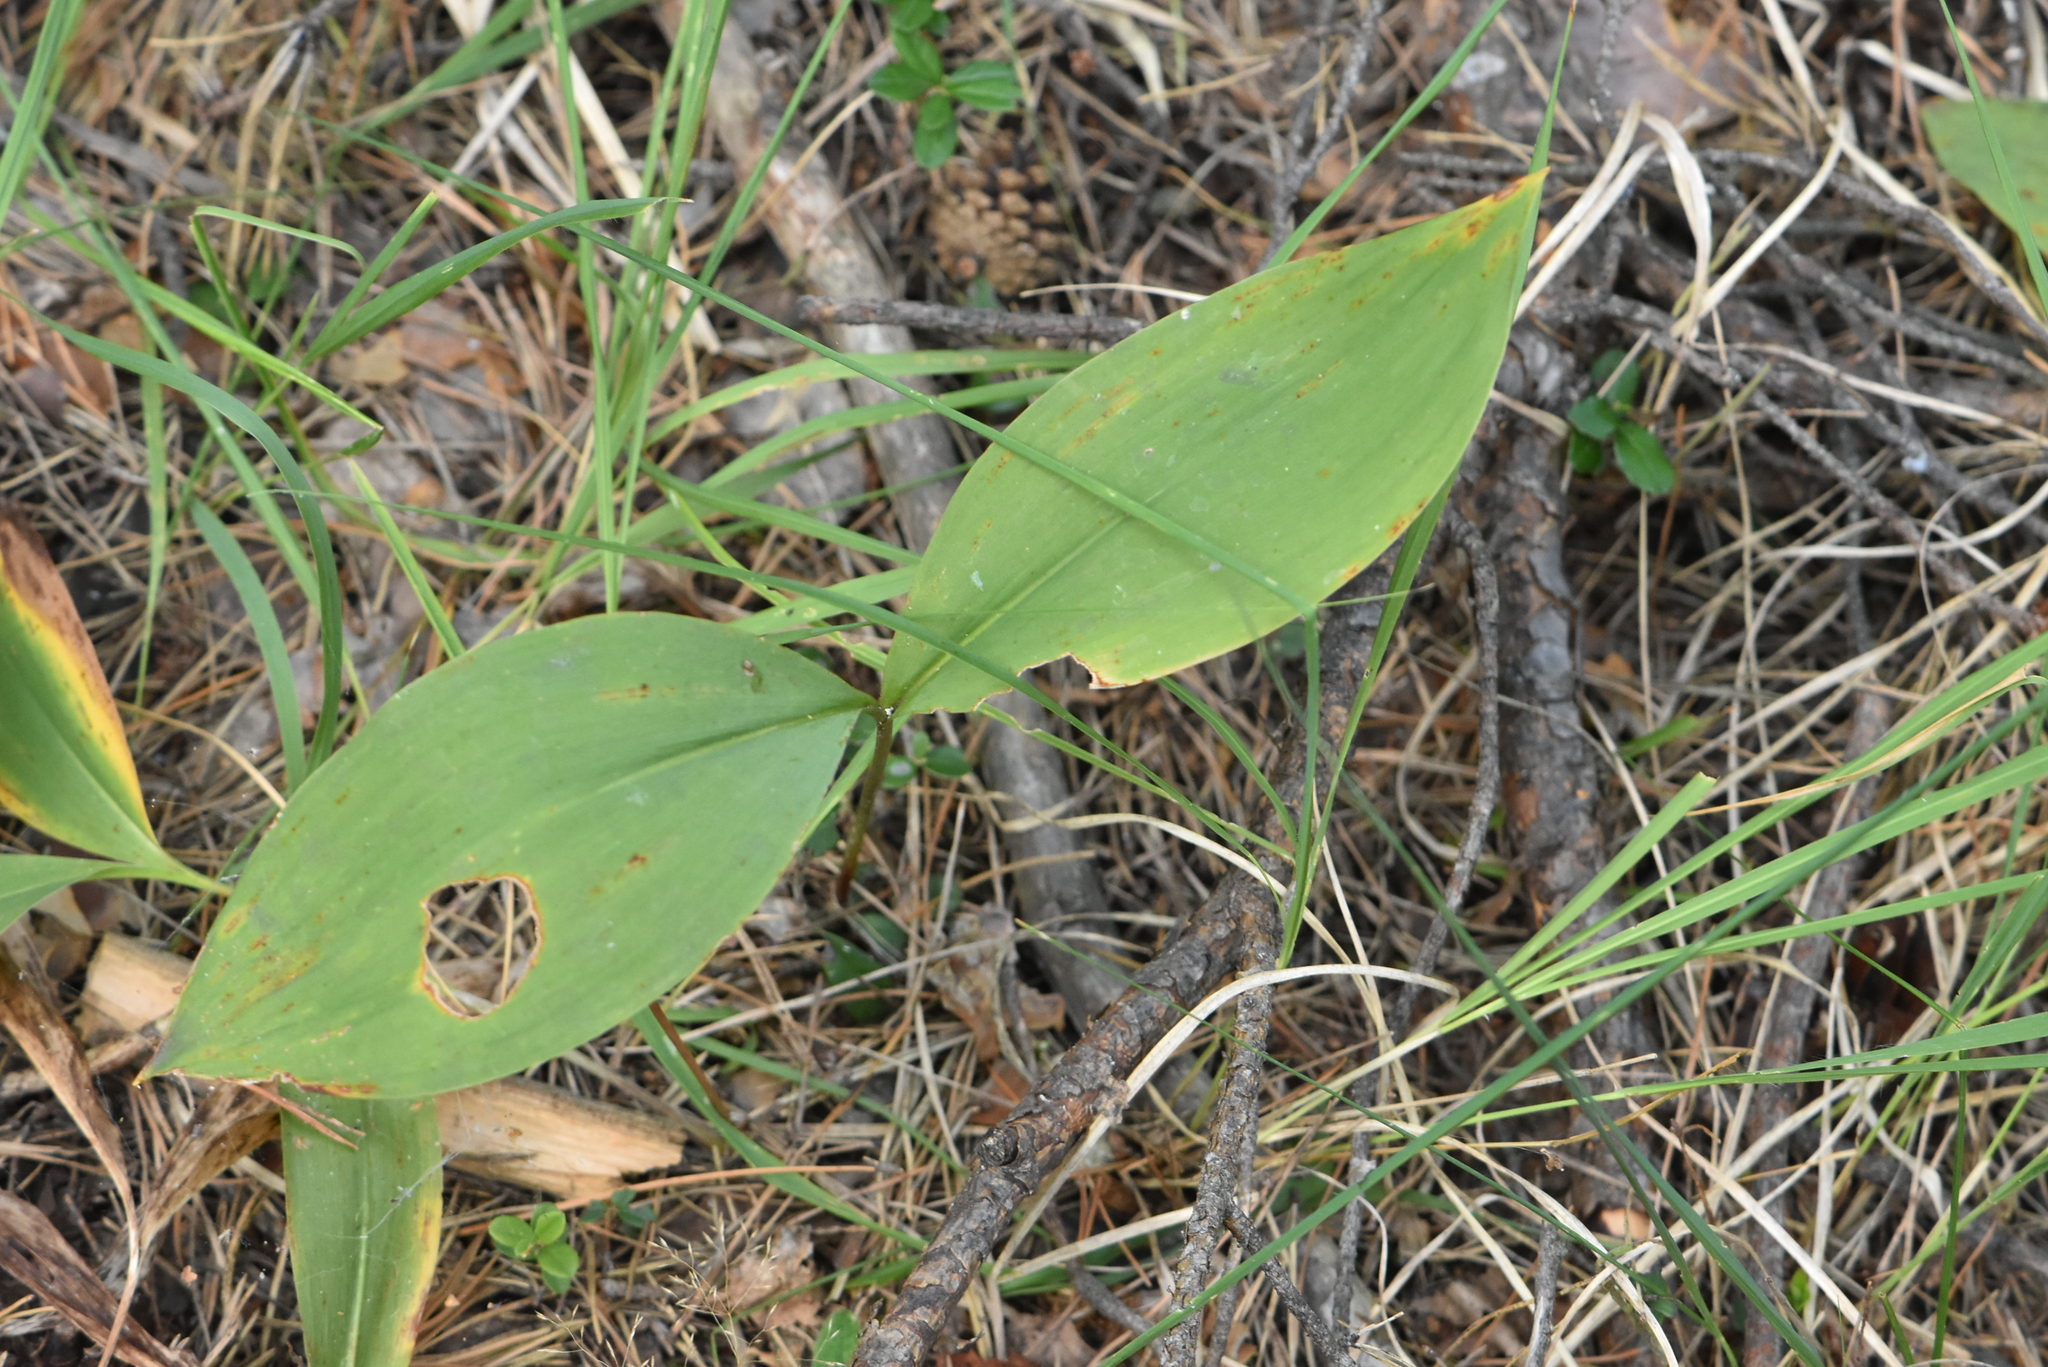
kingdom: Plantae
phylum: Tracheophyta
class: Liliopsida
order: Asparagales
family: Asparagaceae
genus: Convallaria
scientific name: Convallaria majalis
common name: Lily-of-the-valley
